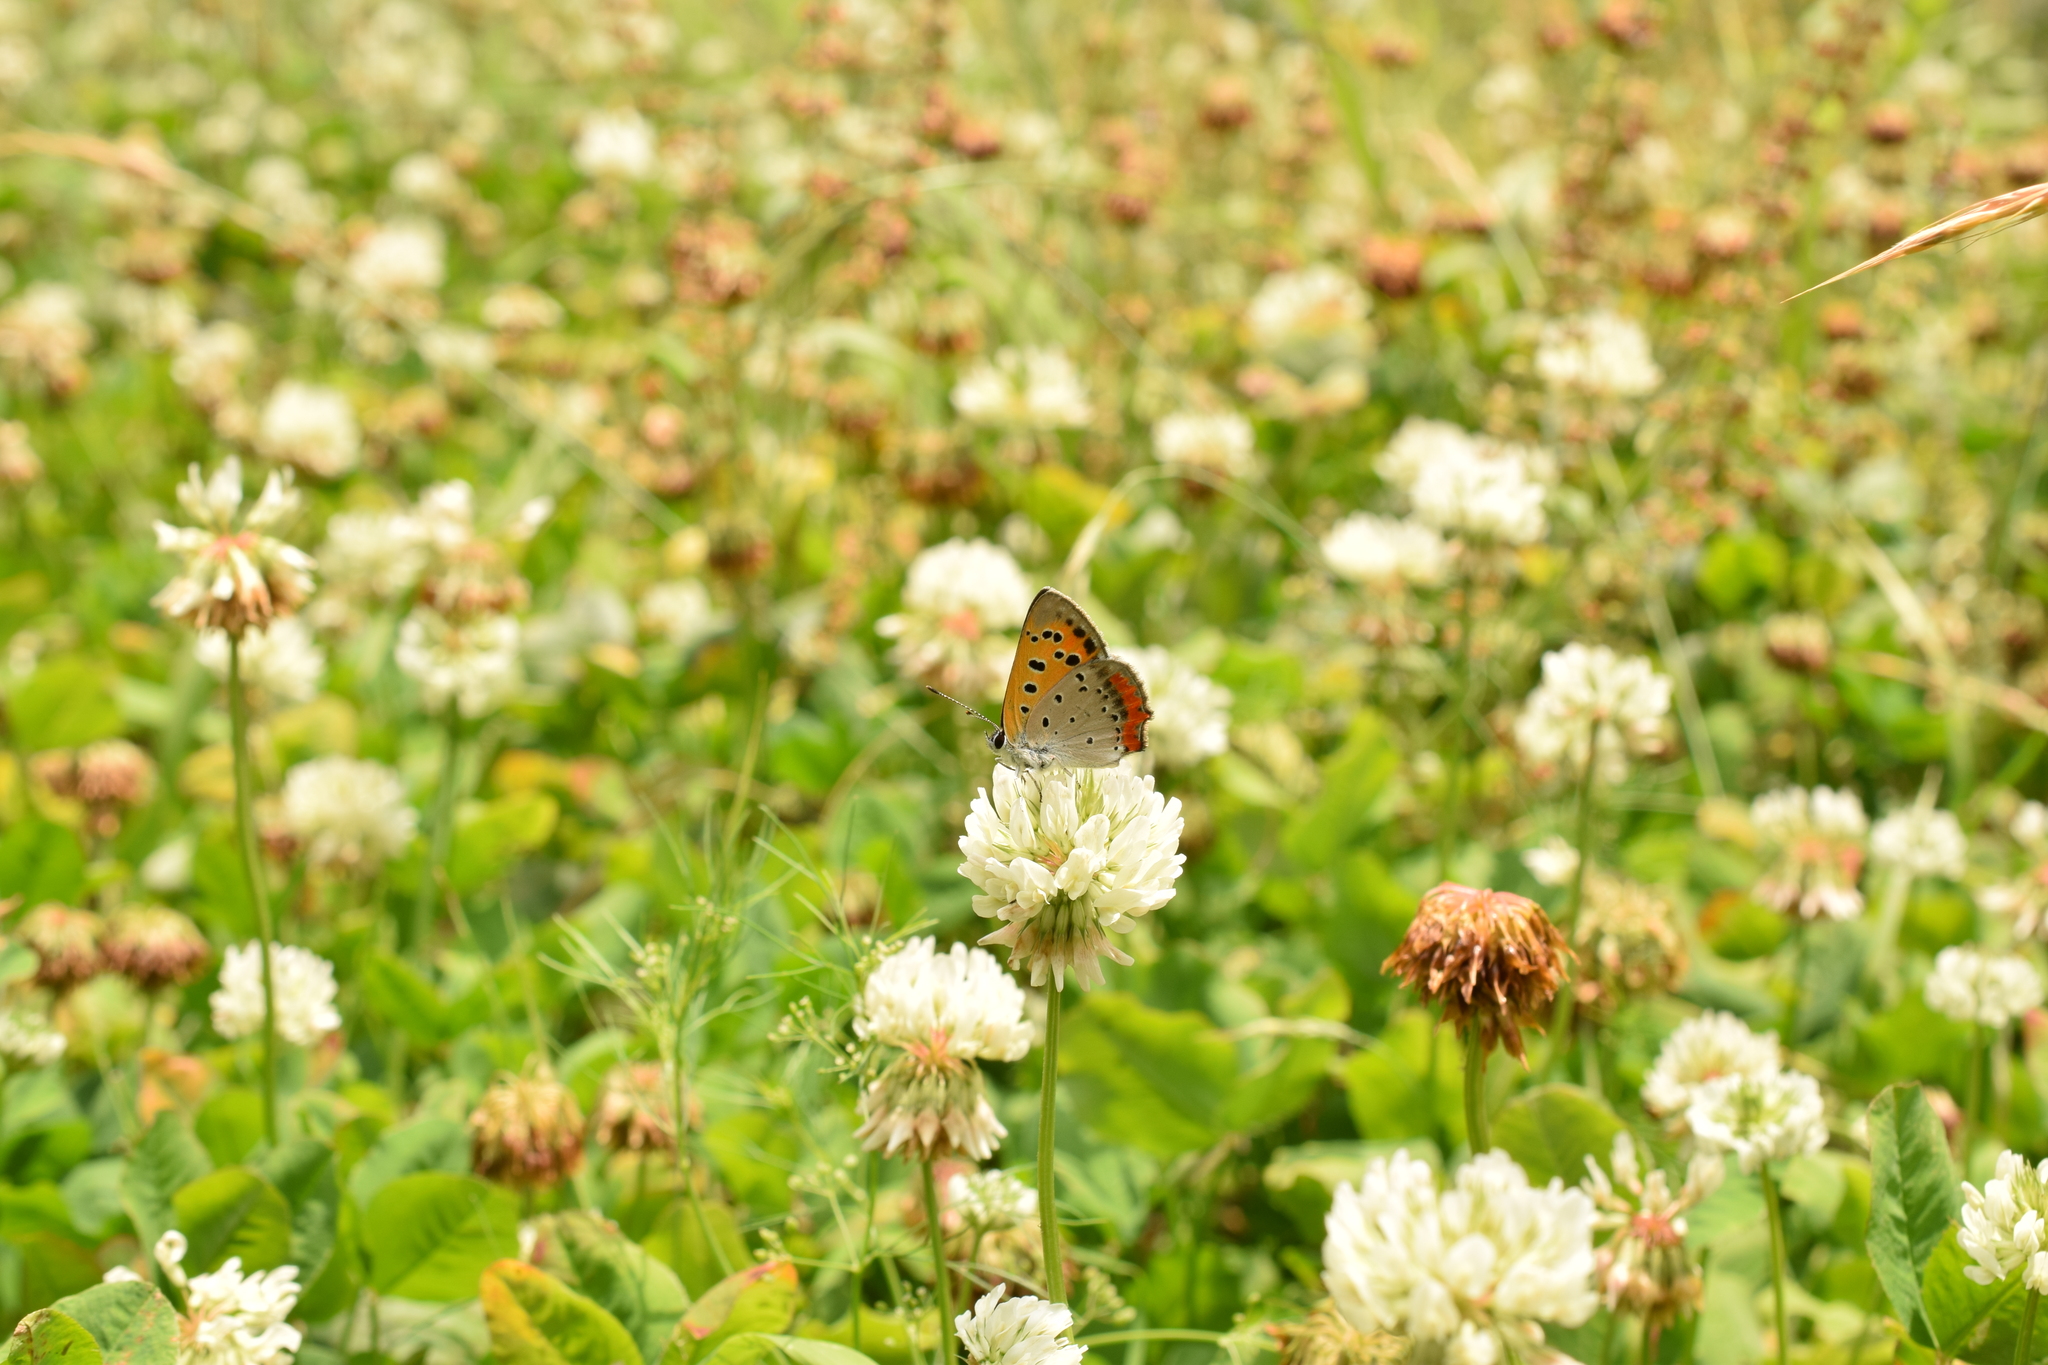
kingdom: Animalia
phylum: Arthropoda
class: Insecta
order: Lepidoptera
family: Lycaenidae
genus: Lycaena
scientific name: Lycaena phlaeas
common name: Small copper
